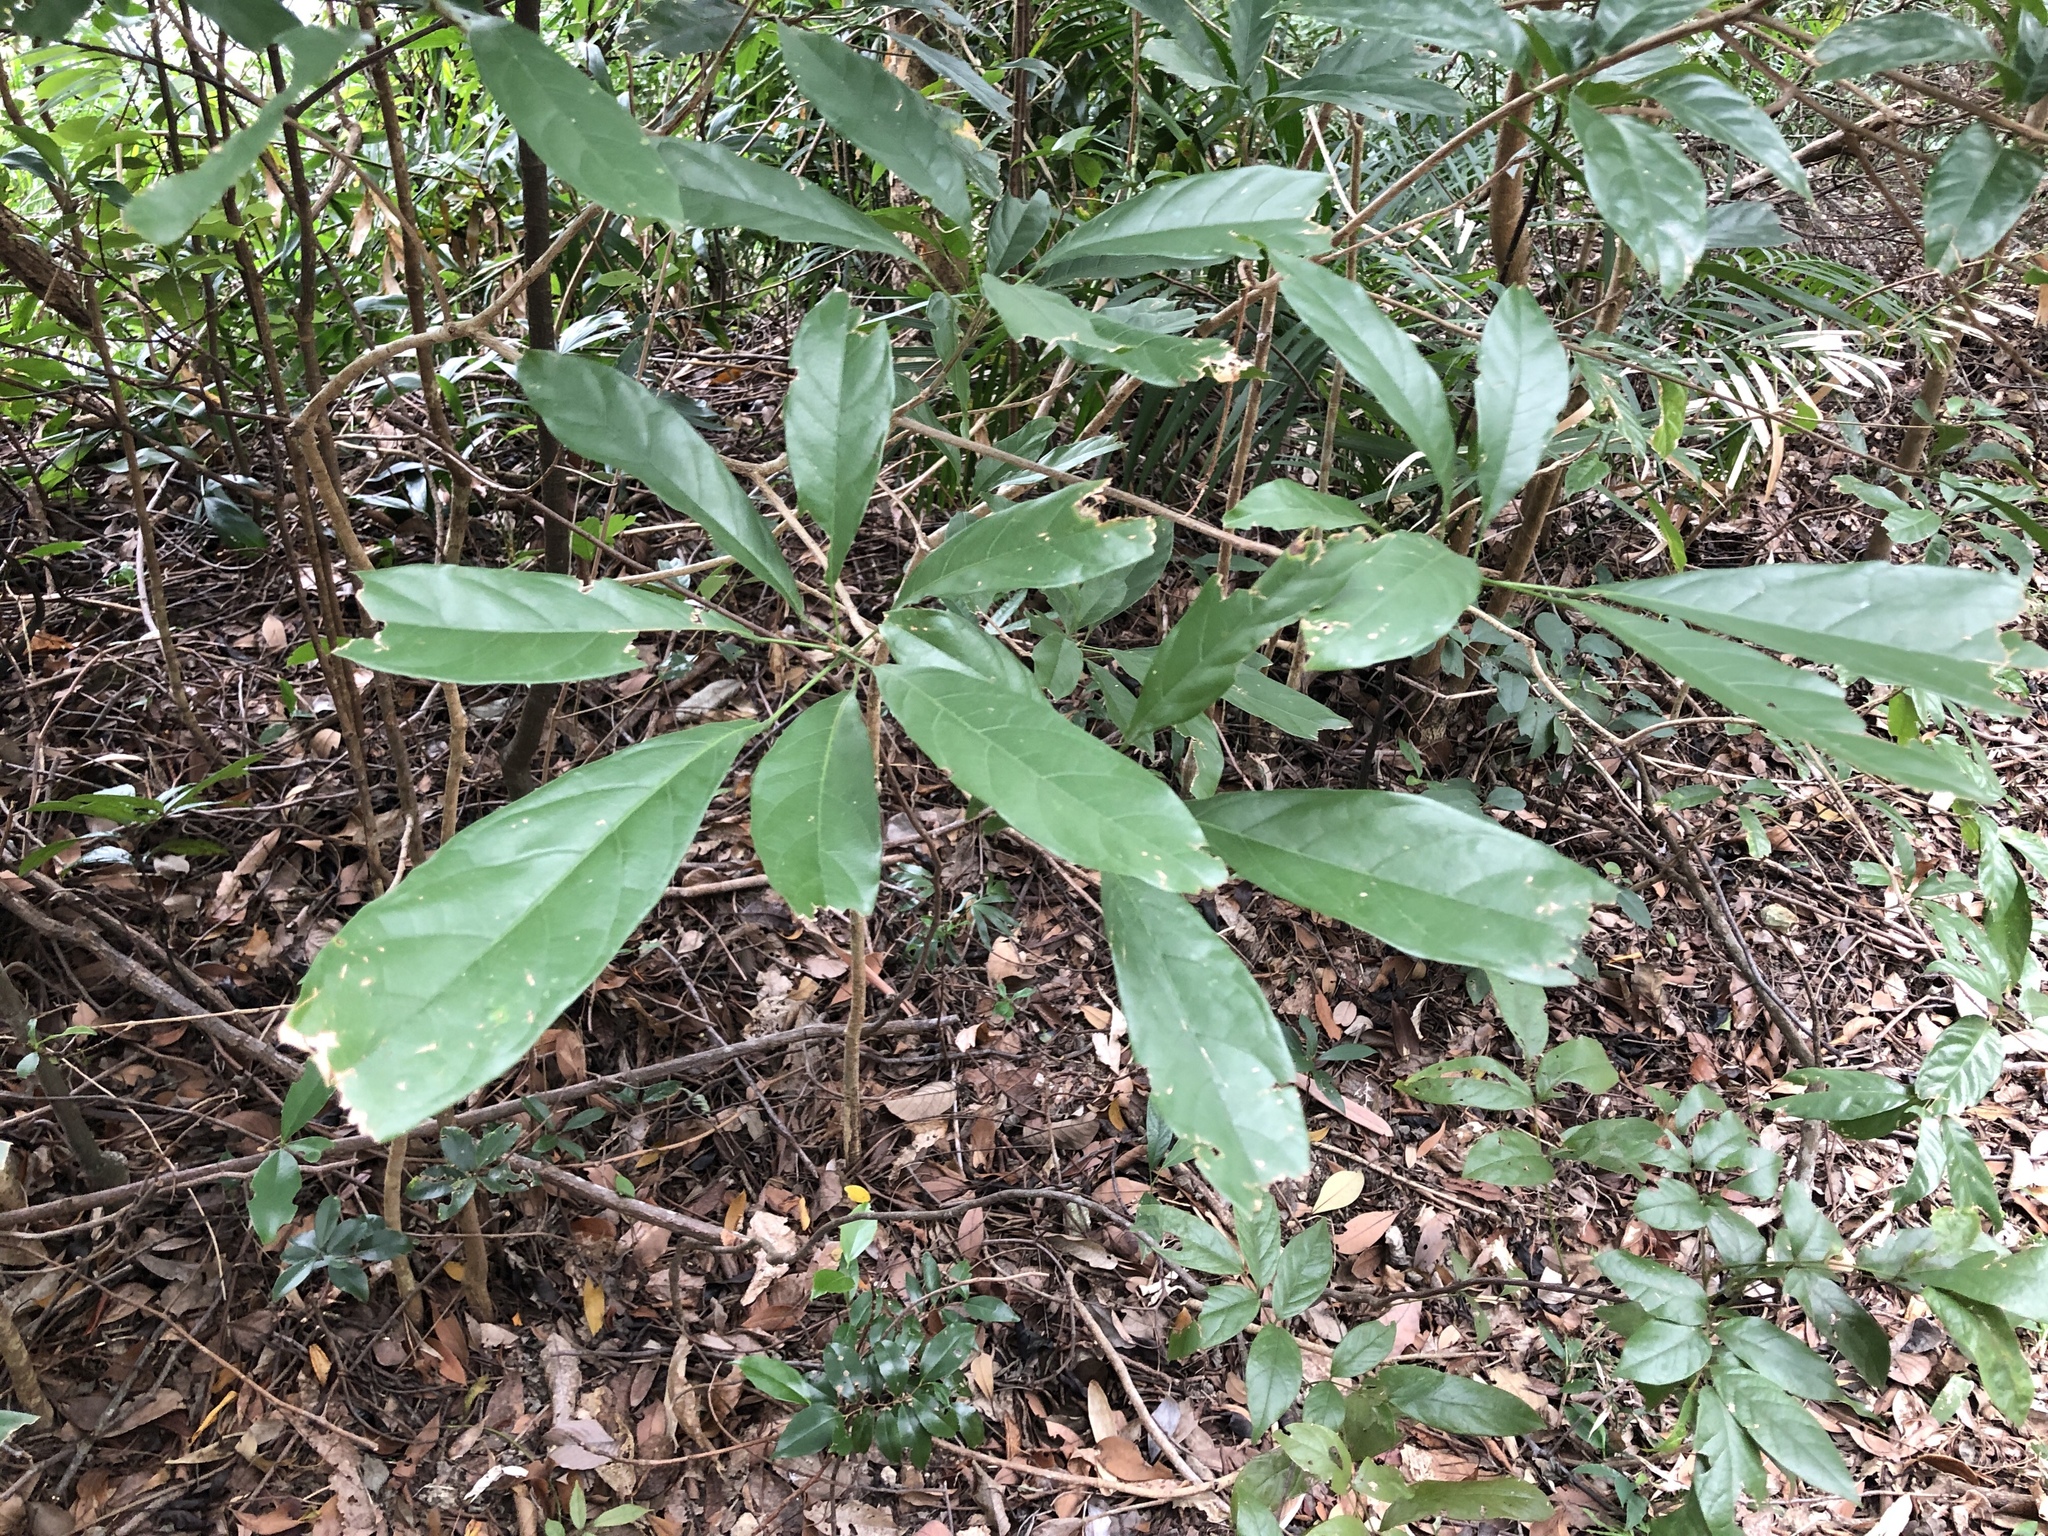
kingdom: Plantae
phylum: Tracheophyta
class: Magnoliopsida
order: Malvales
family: Malvaceae
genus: Sterculia
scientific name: Sterculia lanceolata
